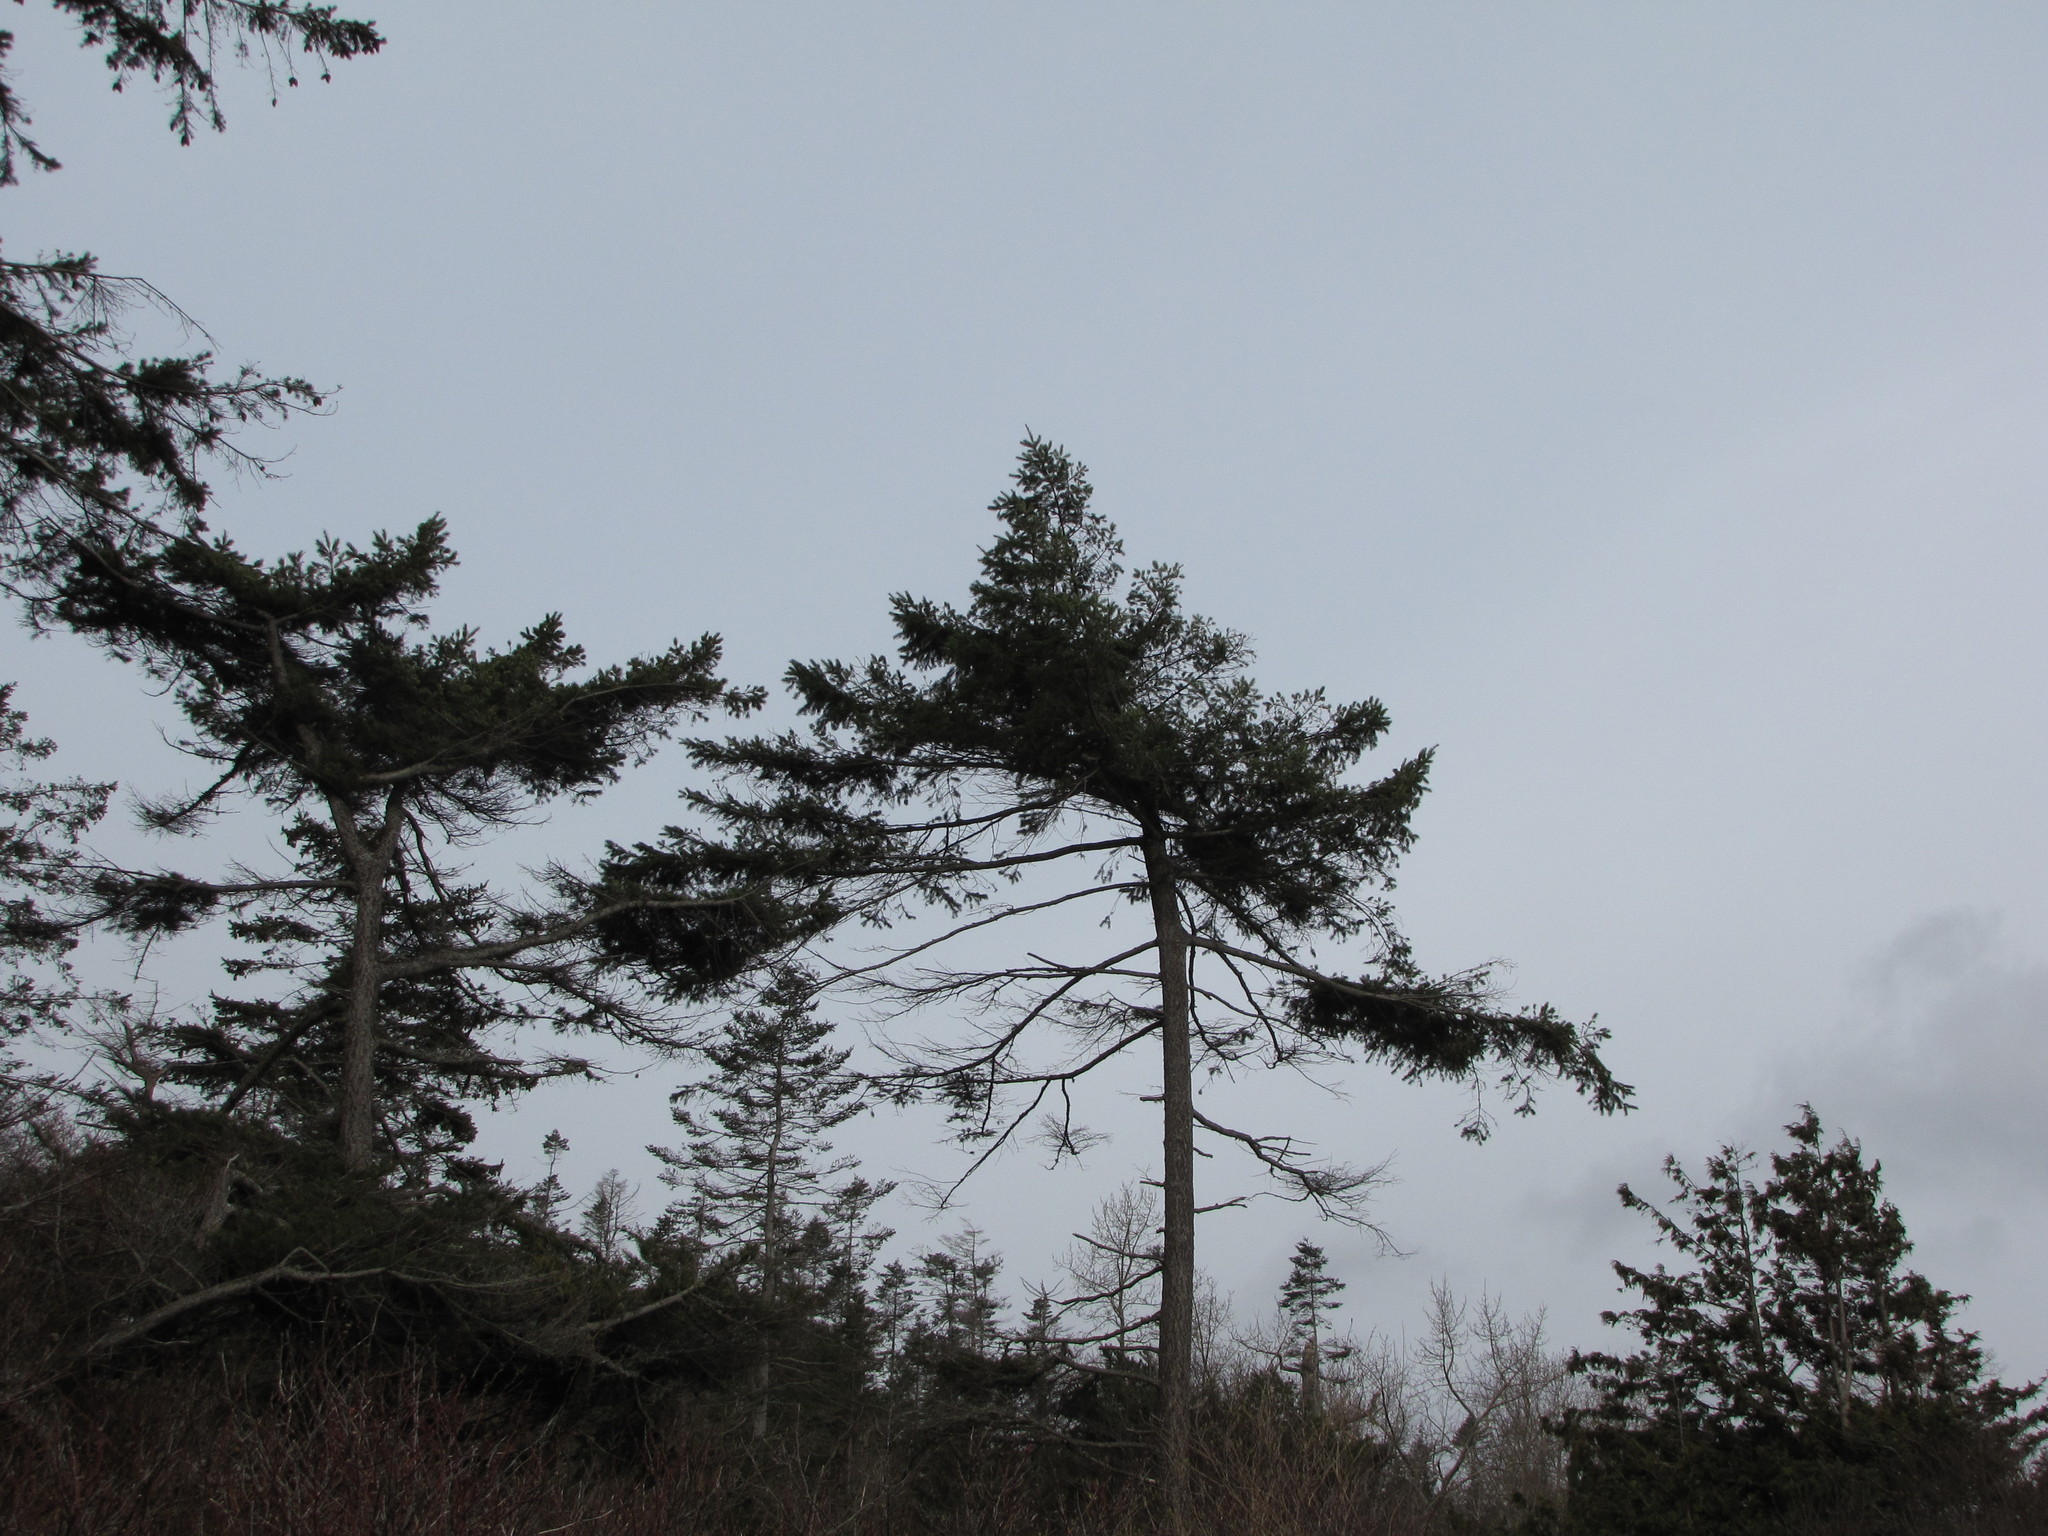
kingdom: Plantae
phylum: Tracheophyta
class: Pinopsida
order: Pinales
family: Pinaceae
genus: Pinus
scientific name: Pinus contorta
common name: Lodgepole pine
